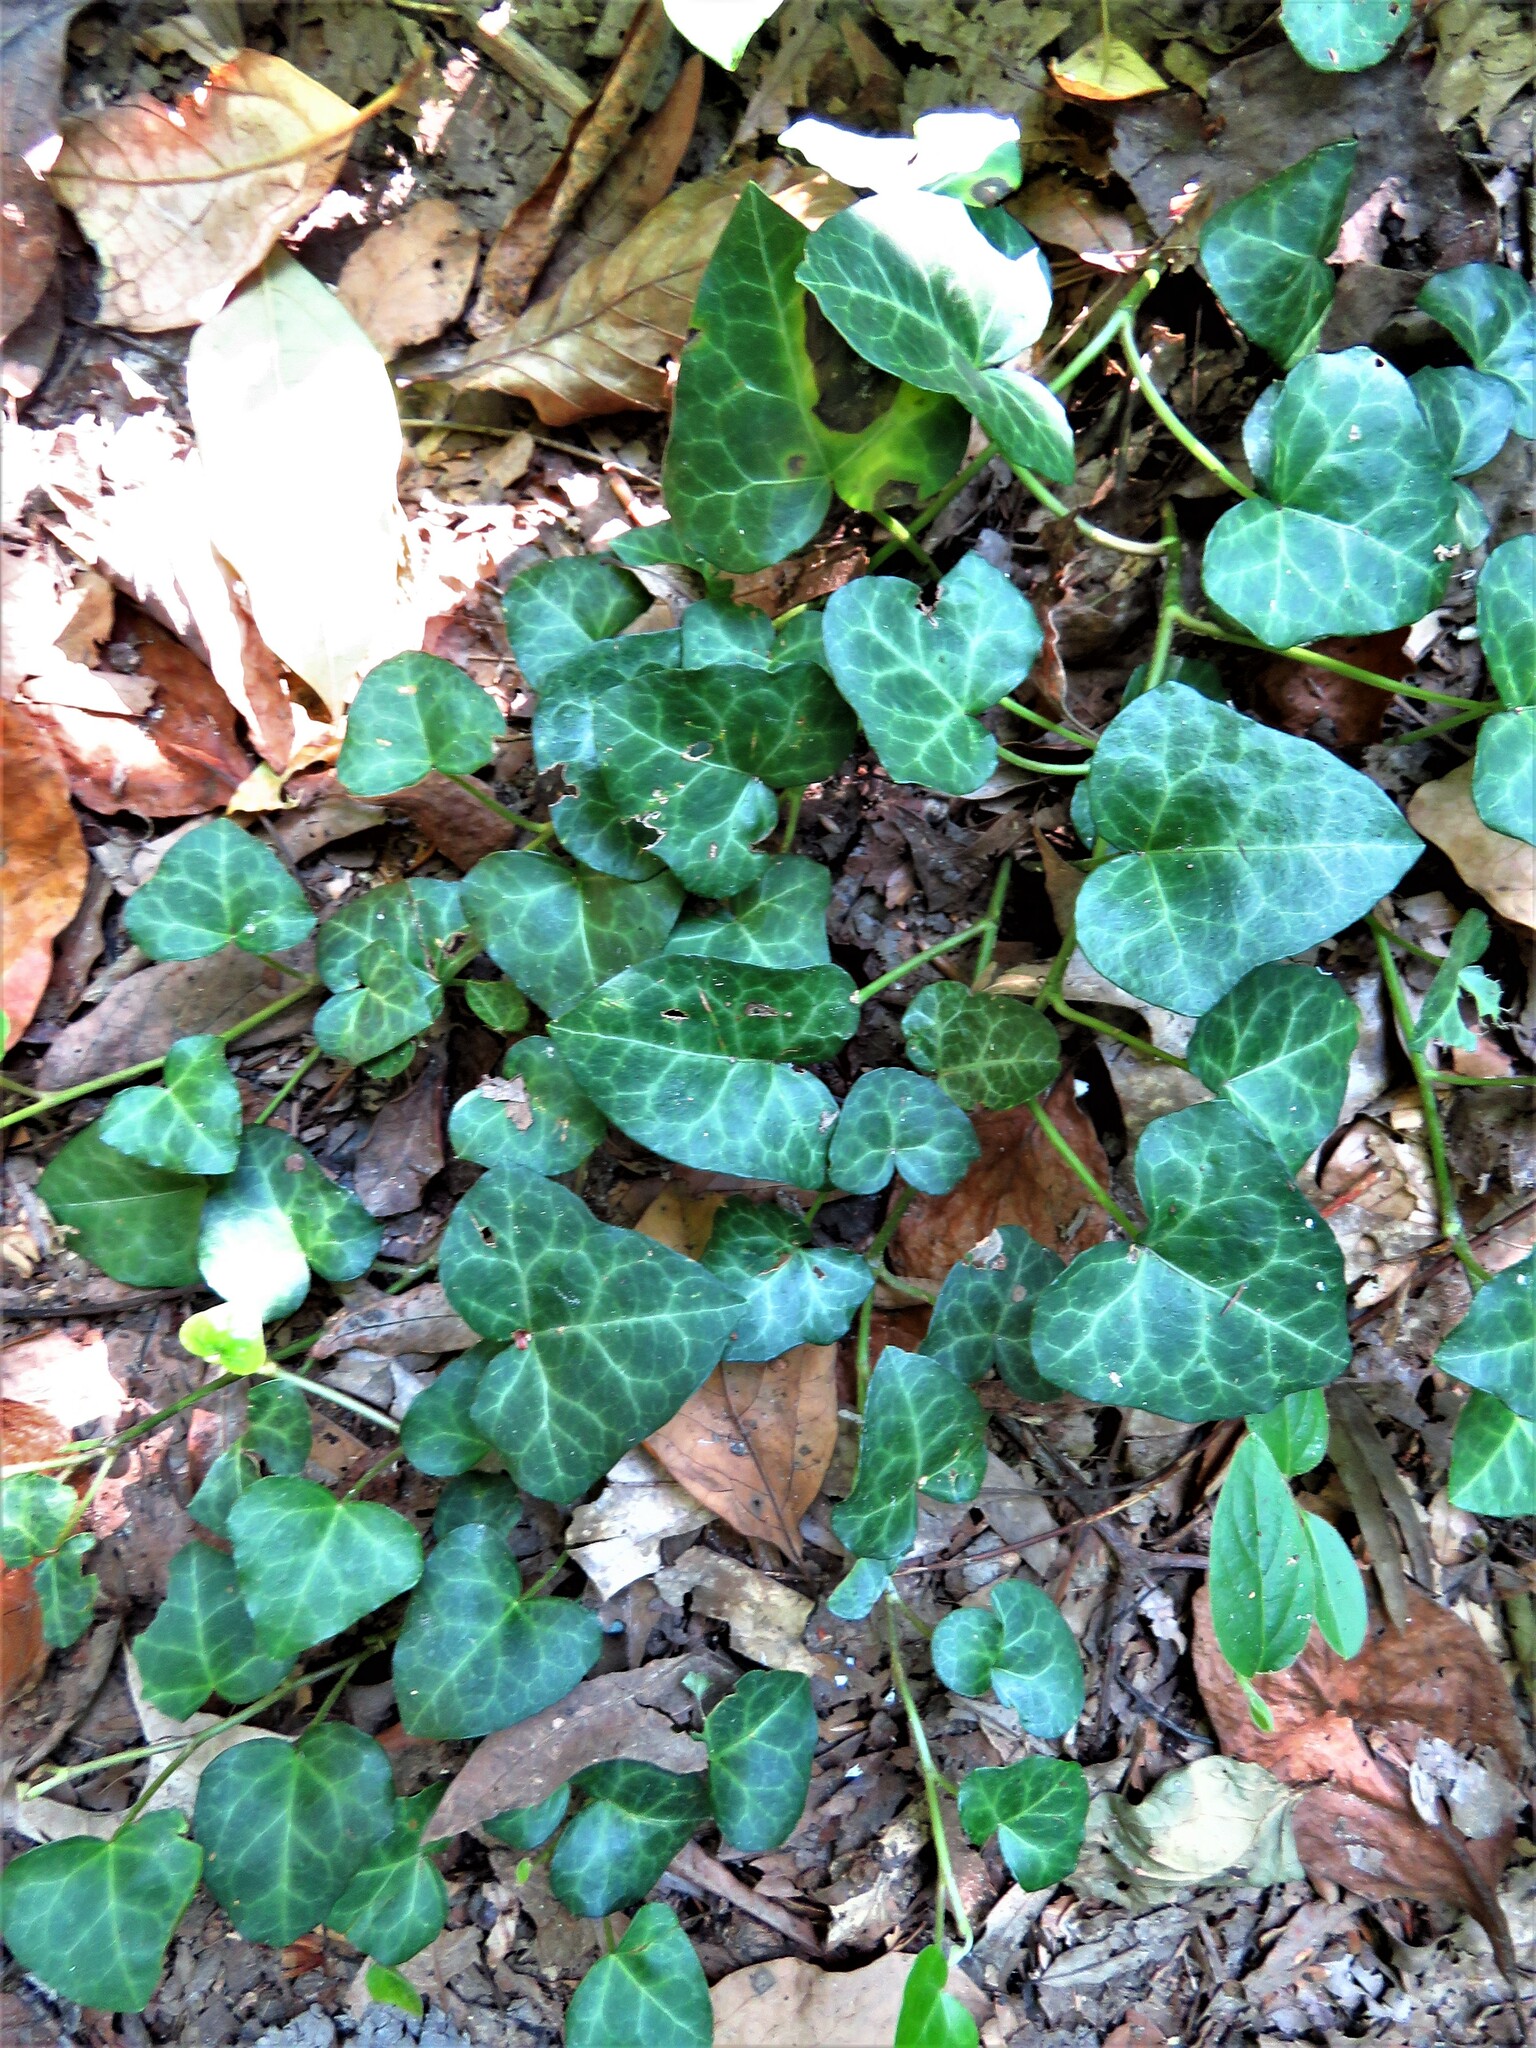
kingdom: Plantae
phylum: Tracheophyta
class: Magnoliopsida
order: Apiales
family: Araliaceae
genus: Hedera
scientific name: Hedera helix
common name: Ivy
